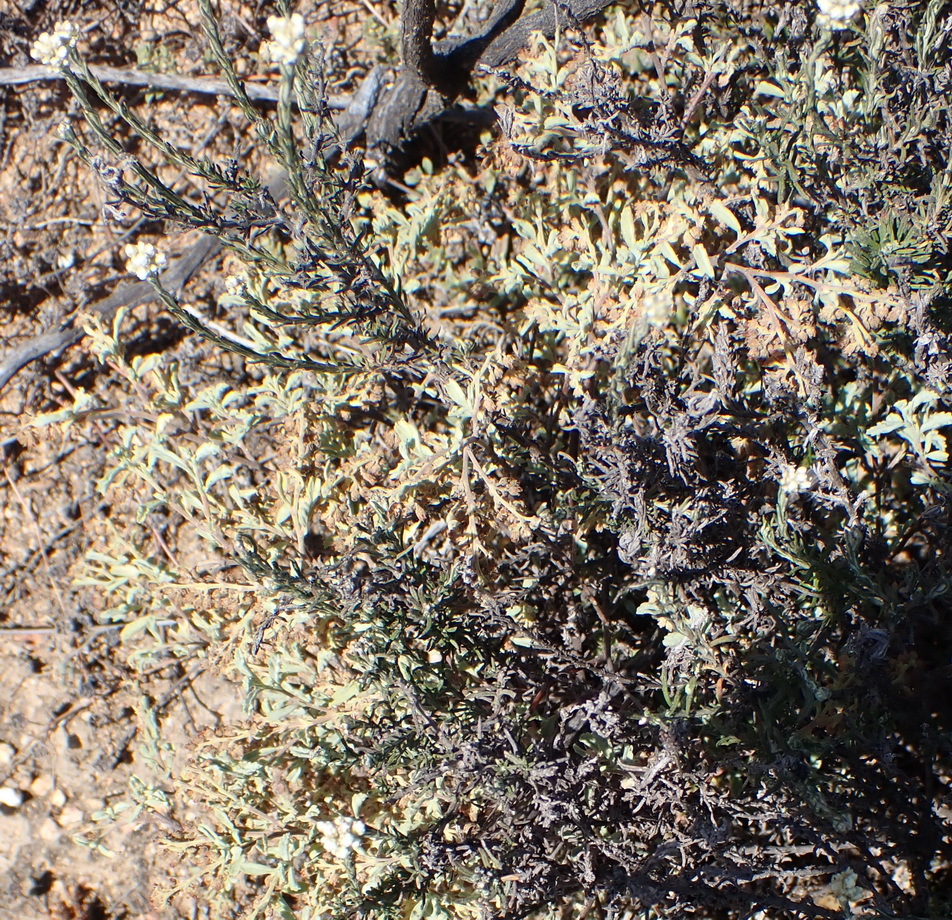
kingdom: Plantae
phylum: Tracheophyta
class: Magnoliopsida
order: Malvales
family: Malvaceae
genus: Hermannia
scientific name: Hermannia holosericea
